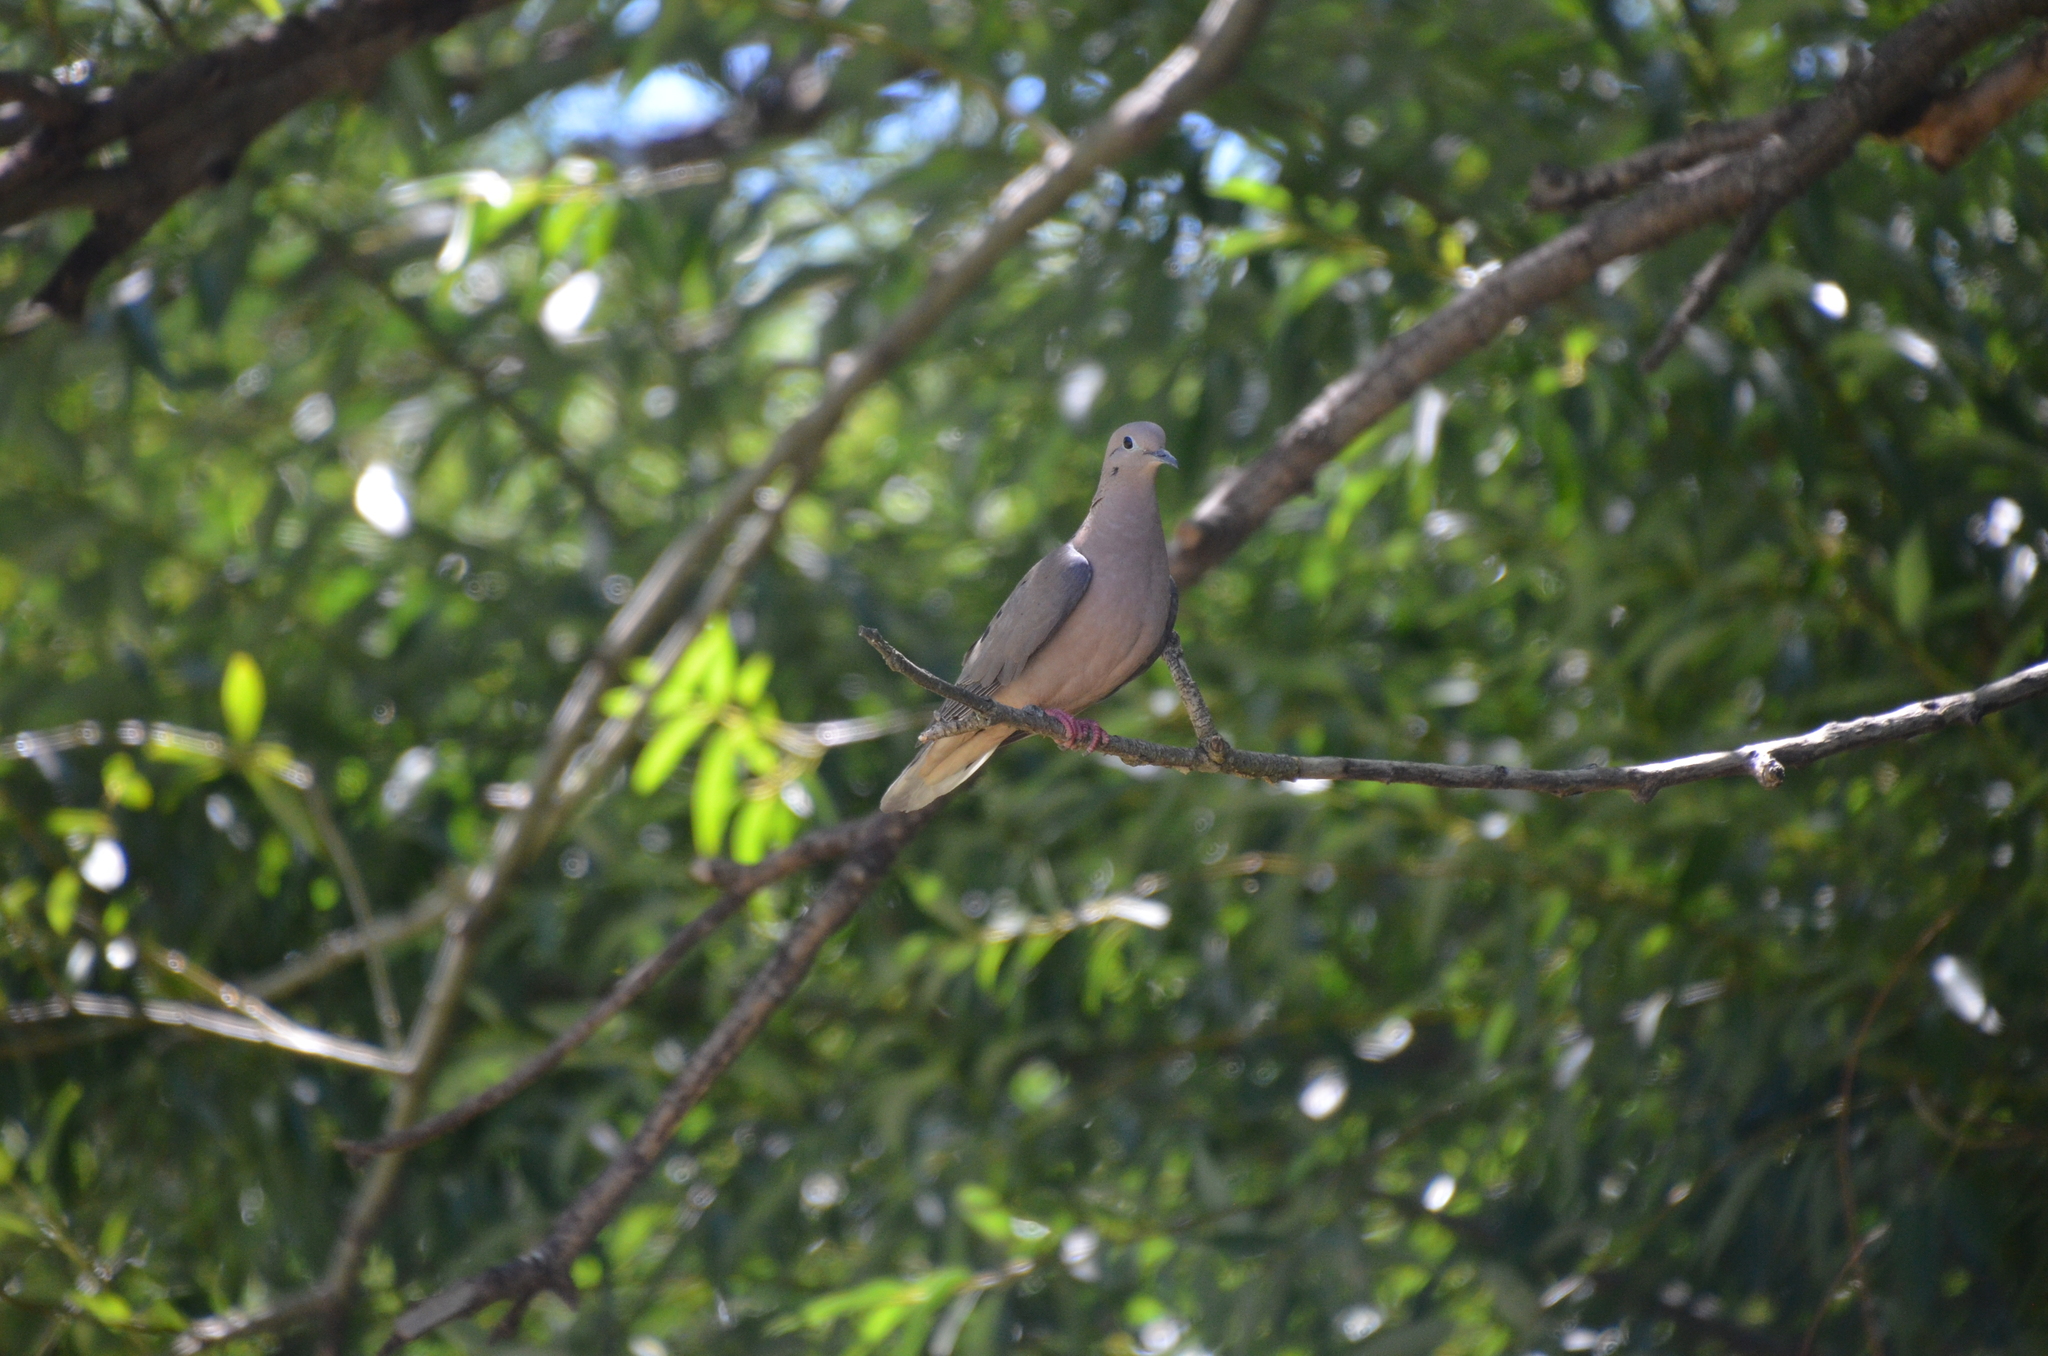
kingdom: Animalia
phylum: Chordata
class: Aves
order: Columbiformes
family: Columbidae
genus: Zenaida
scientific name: Zenaida auriculata
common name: Eared dove
